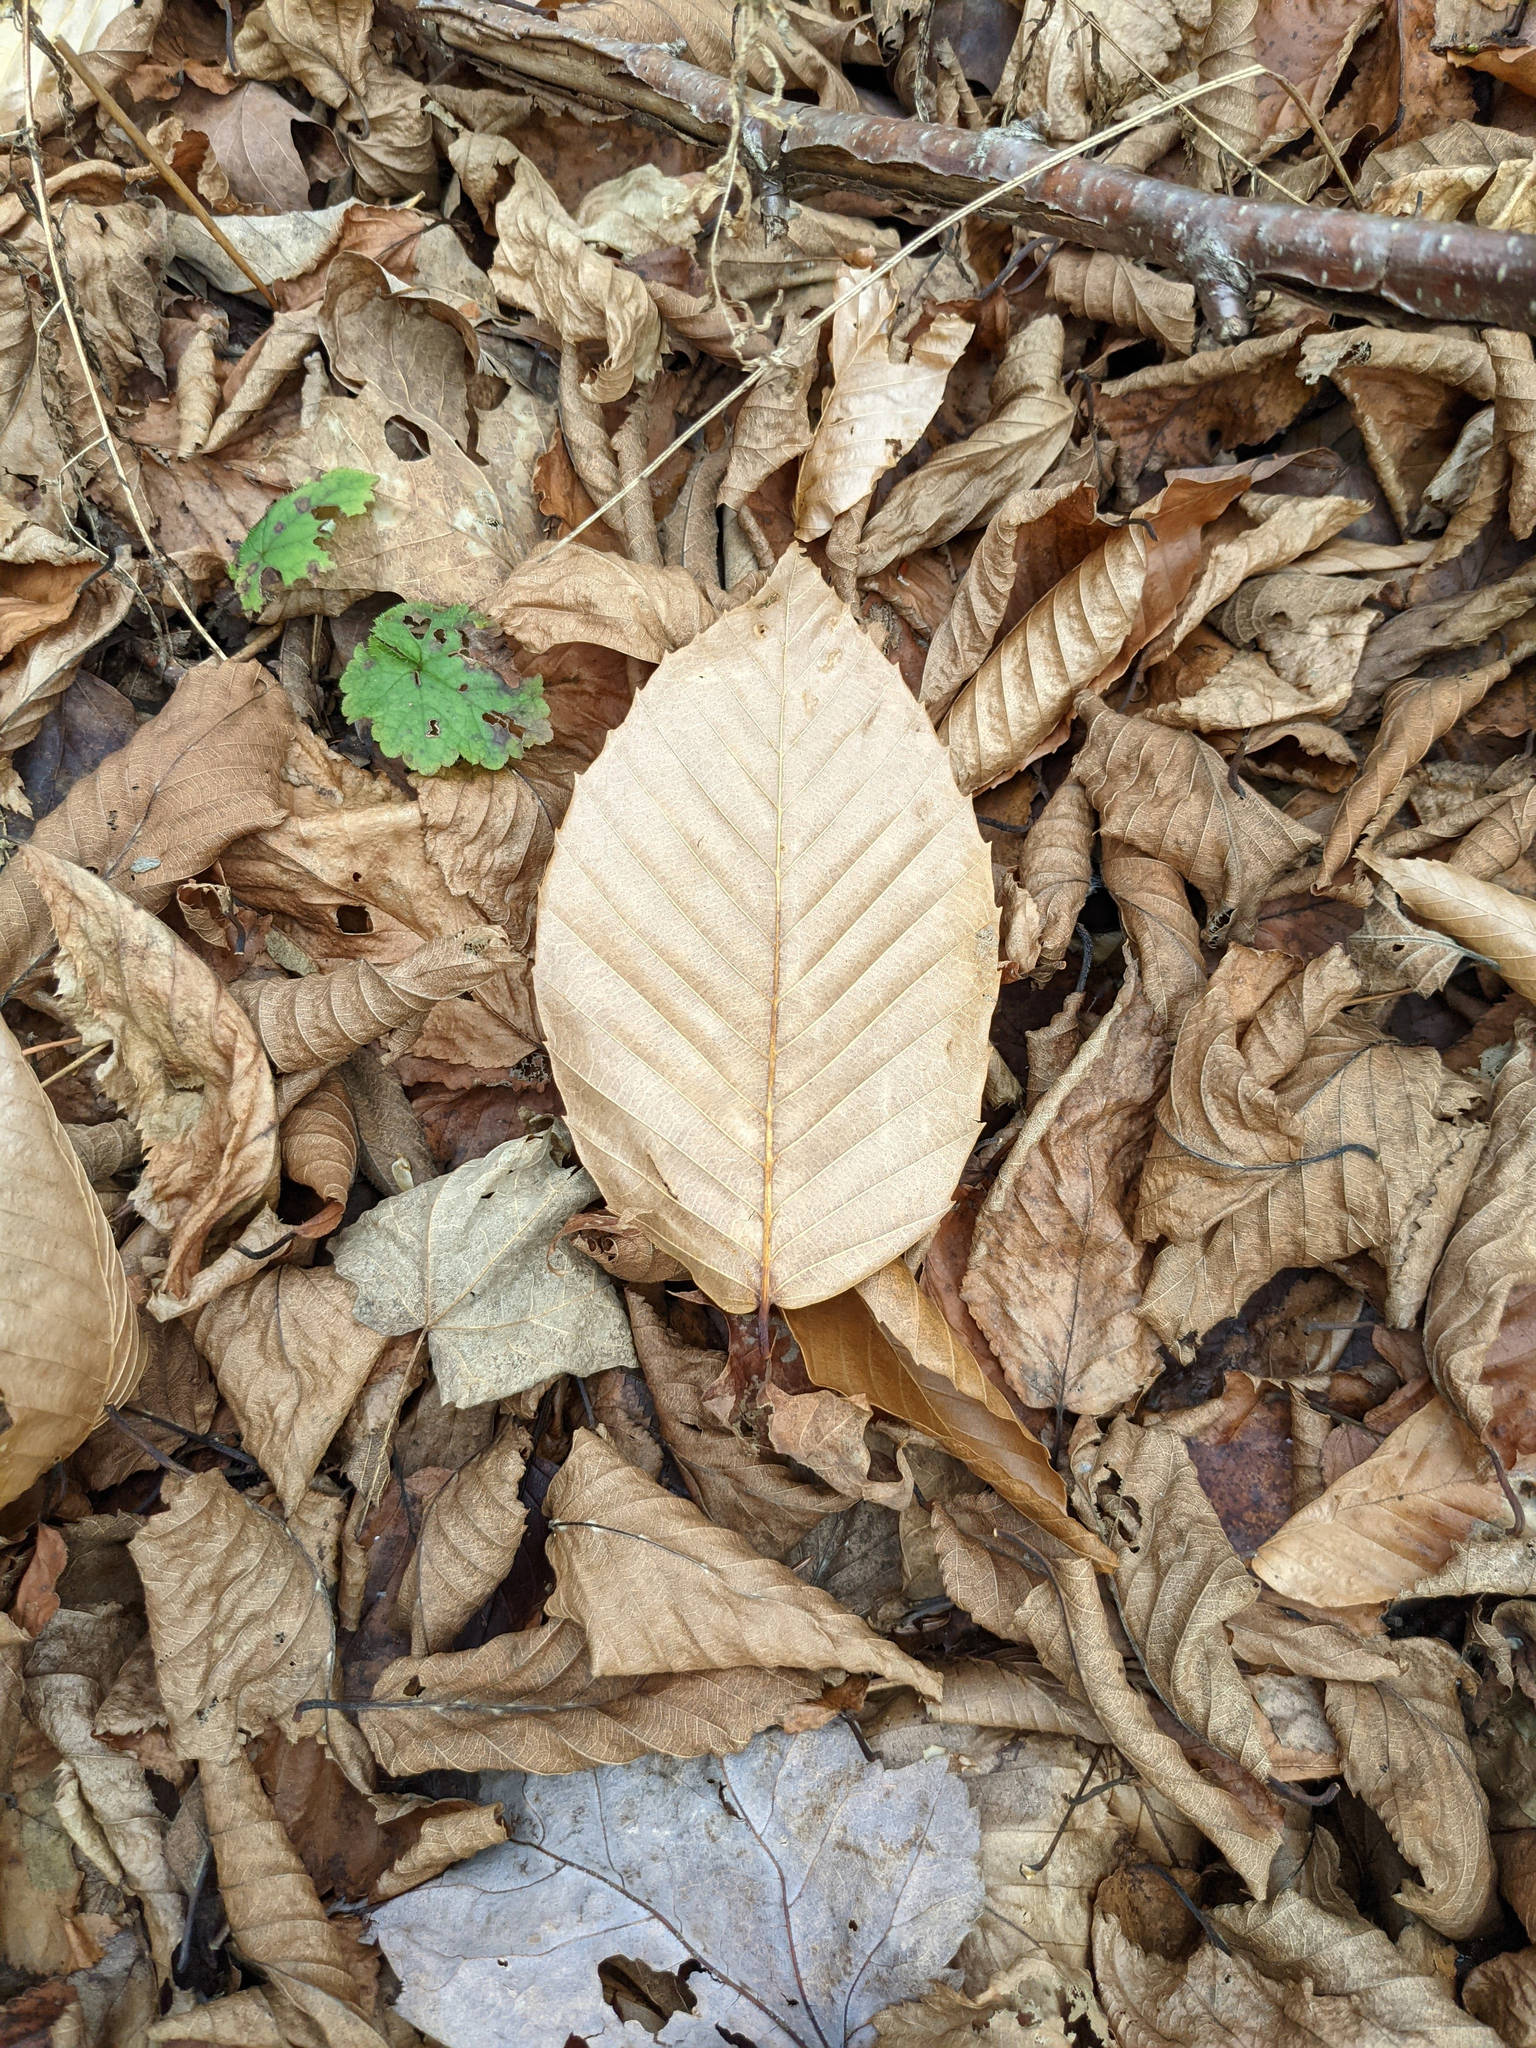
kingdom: Plantae
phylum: Tracheophyta
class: Magnoliopsida
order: Fagales
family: Fagaceae
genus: Fagus
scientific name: Fagus grandifolia
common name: American beech
